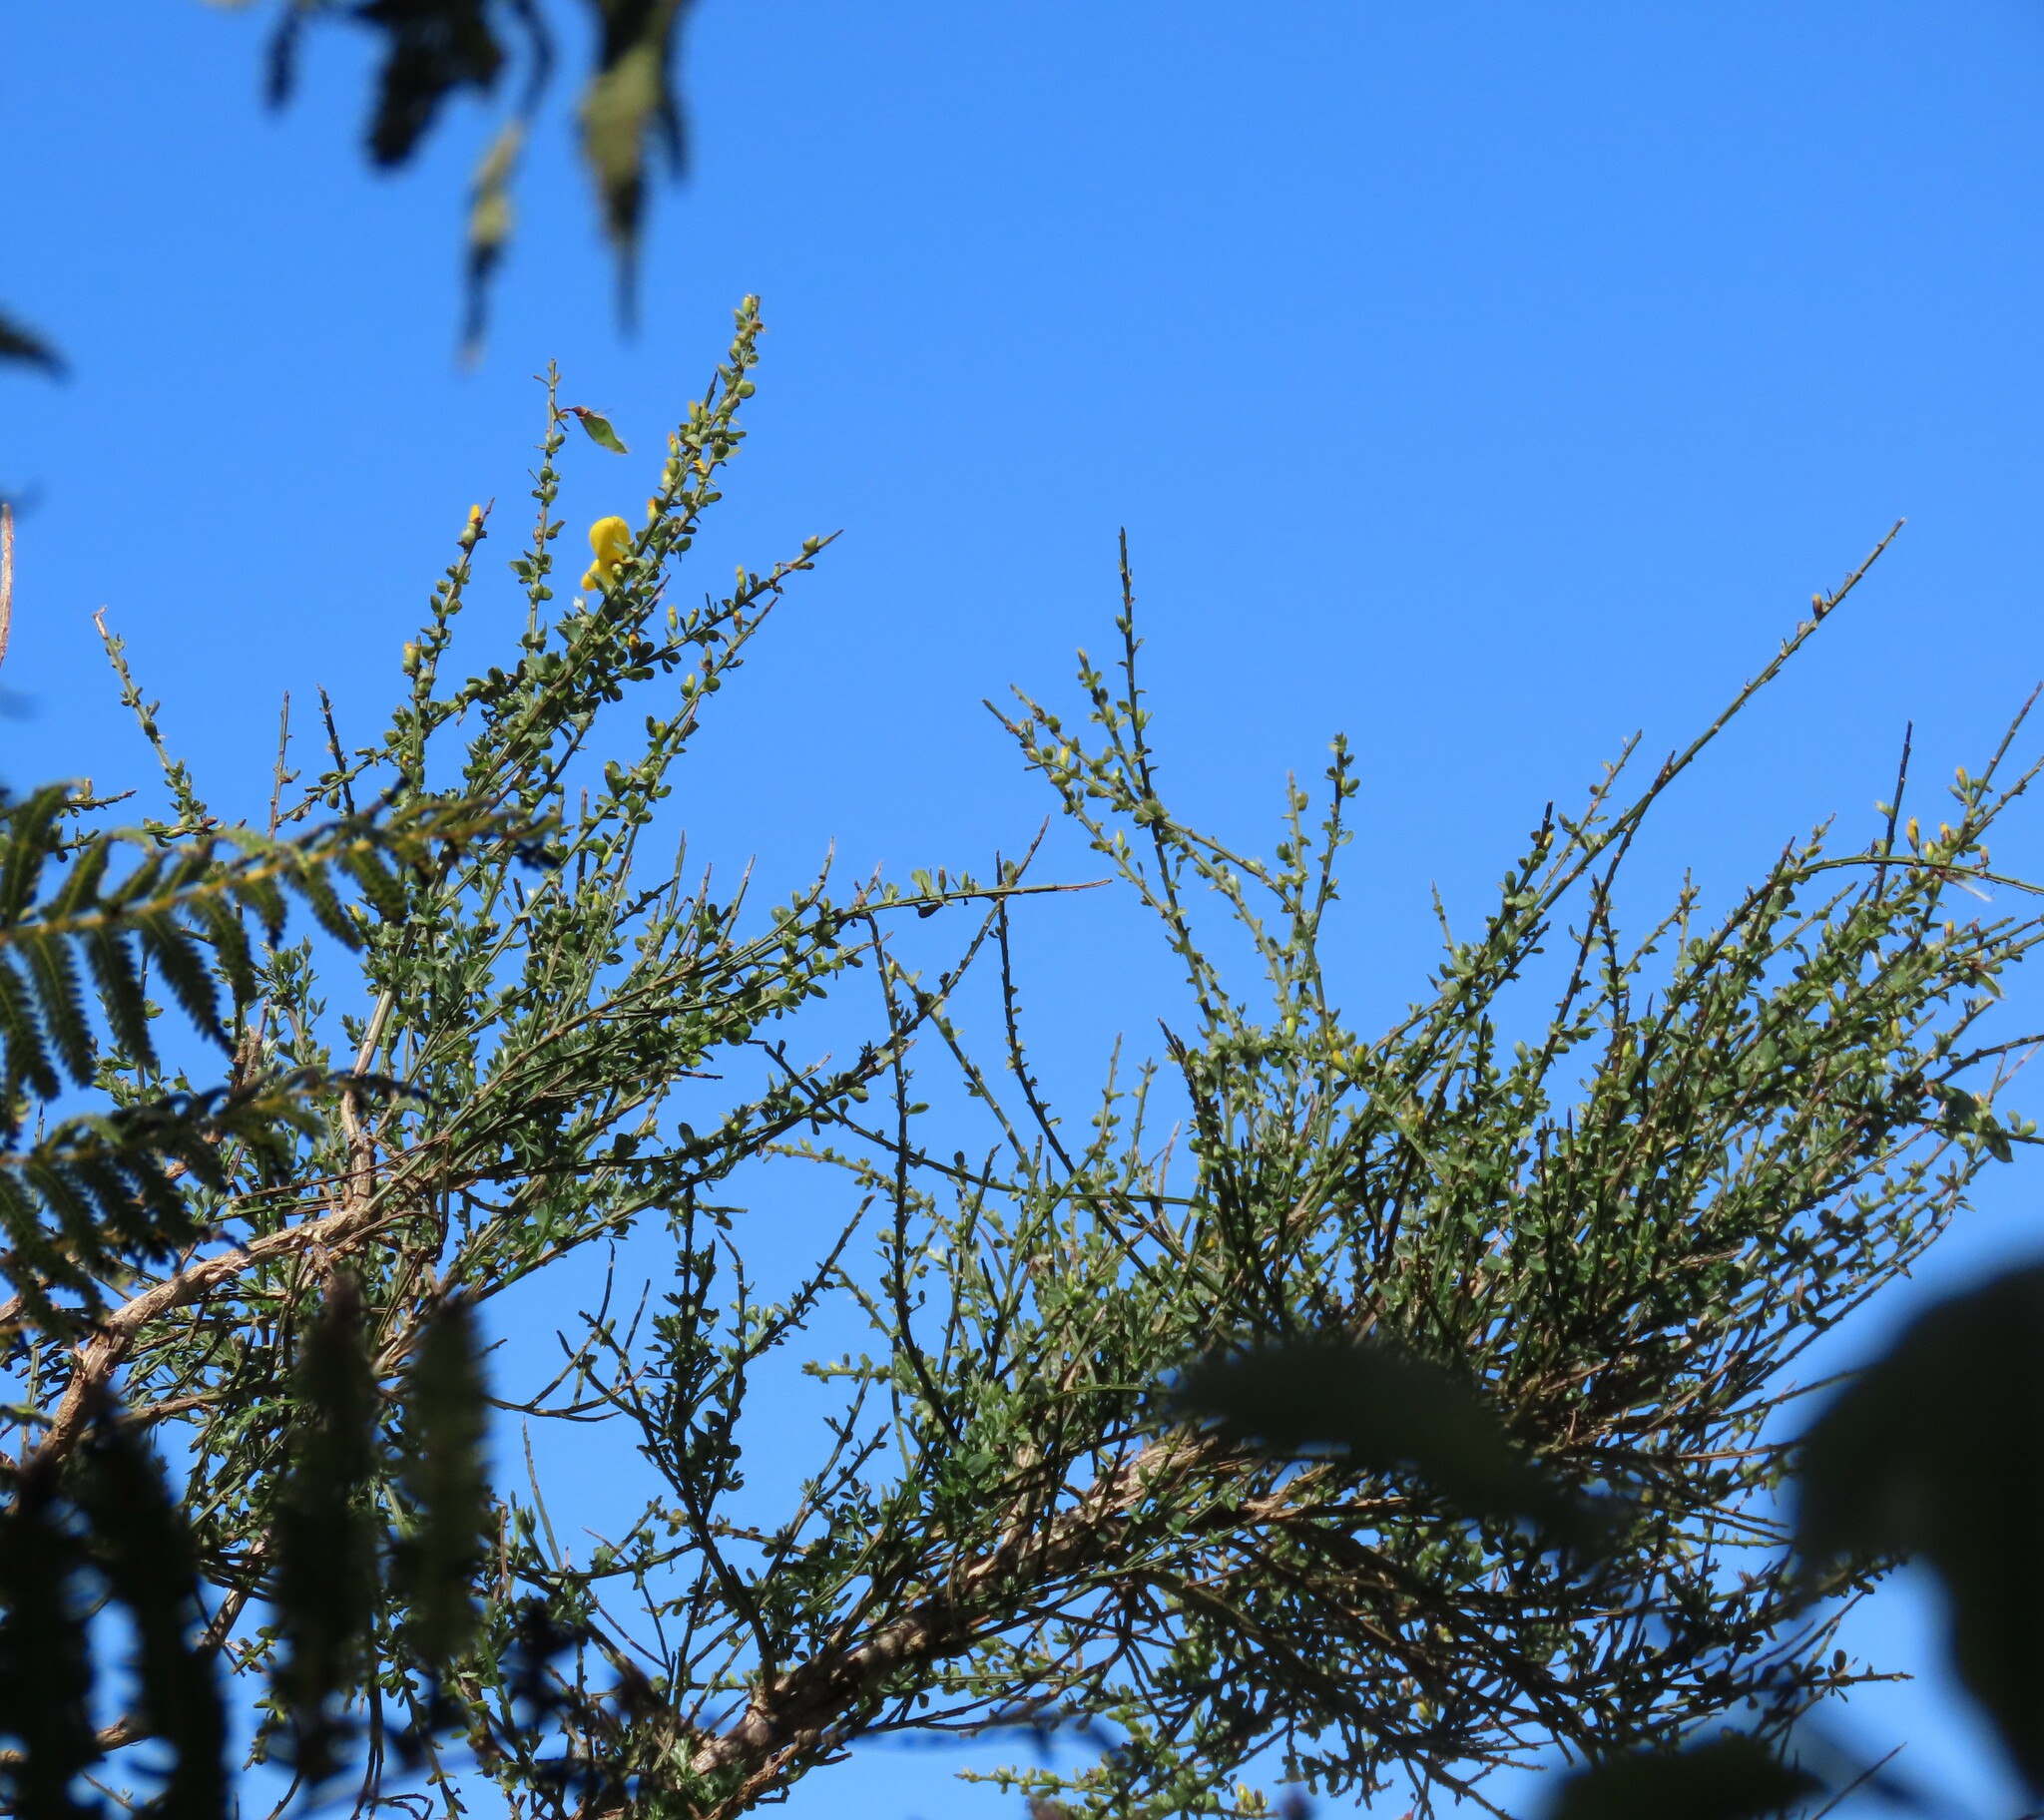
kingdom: Plantae
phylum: Tracheophyta
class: Magnoliopsida
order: Fabales
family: Fabaceae
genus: Cytisus
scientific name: Cytisus scoparius
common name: Scotch broom
